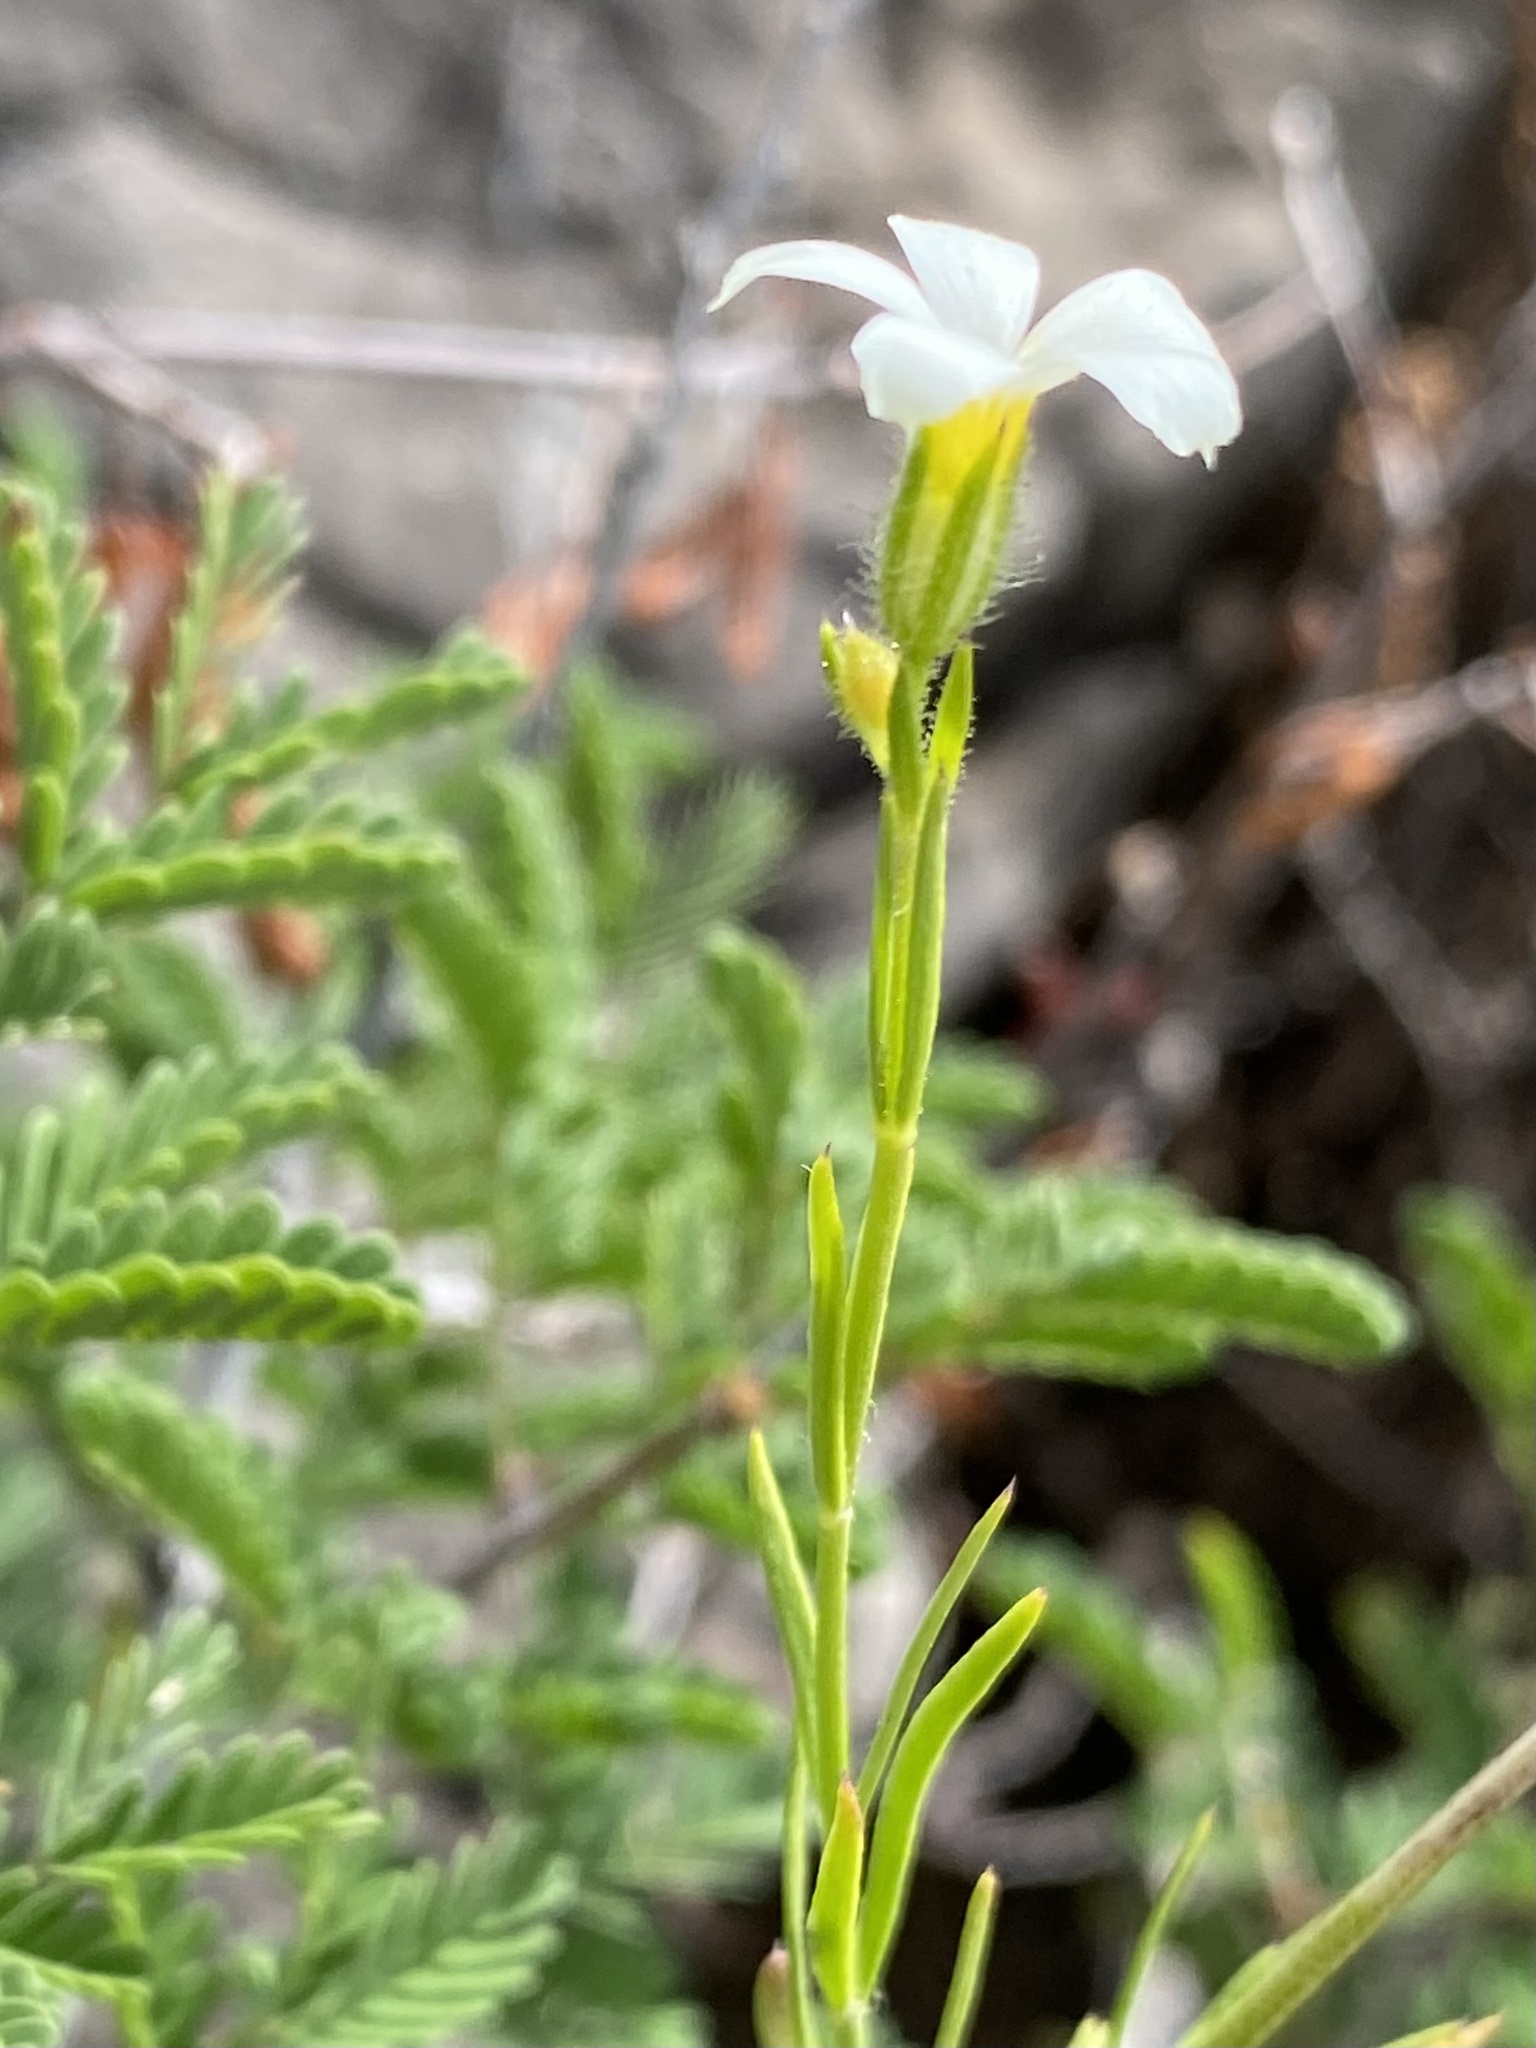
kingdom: Plantae
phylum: Tracheophyta
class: Magnoliopsida
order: Ericales
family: Polemoniaceae
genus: Phlox
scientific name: Phlox tenuifolia
